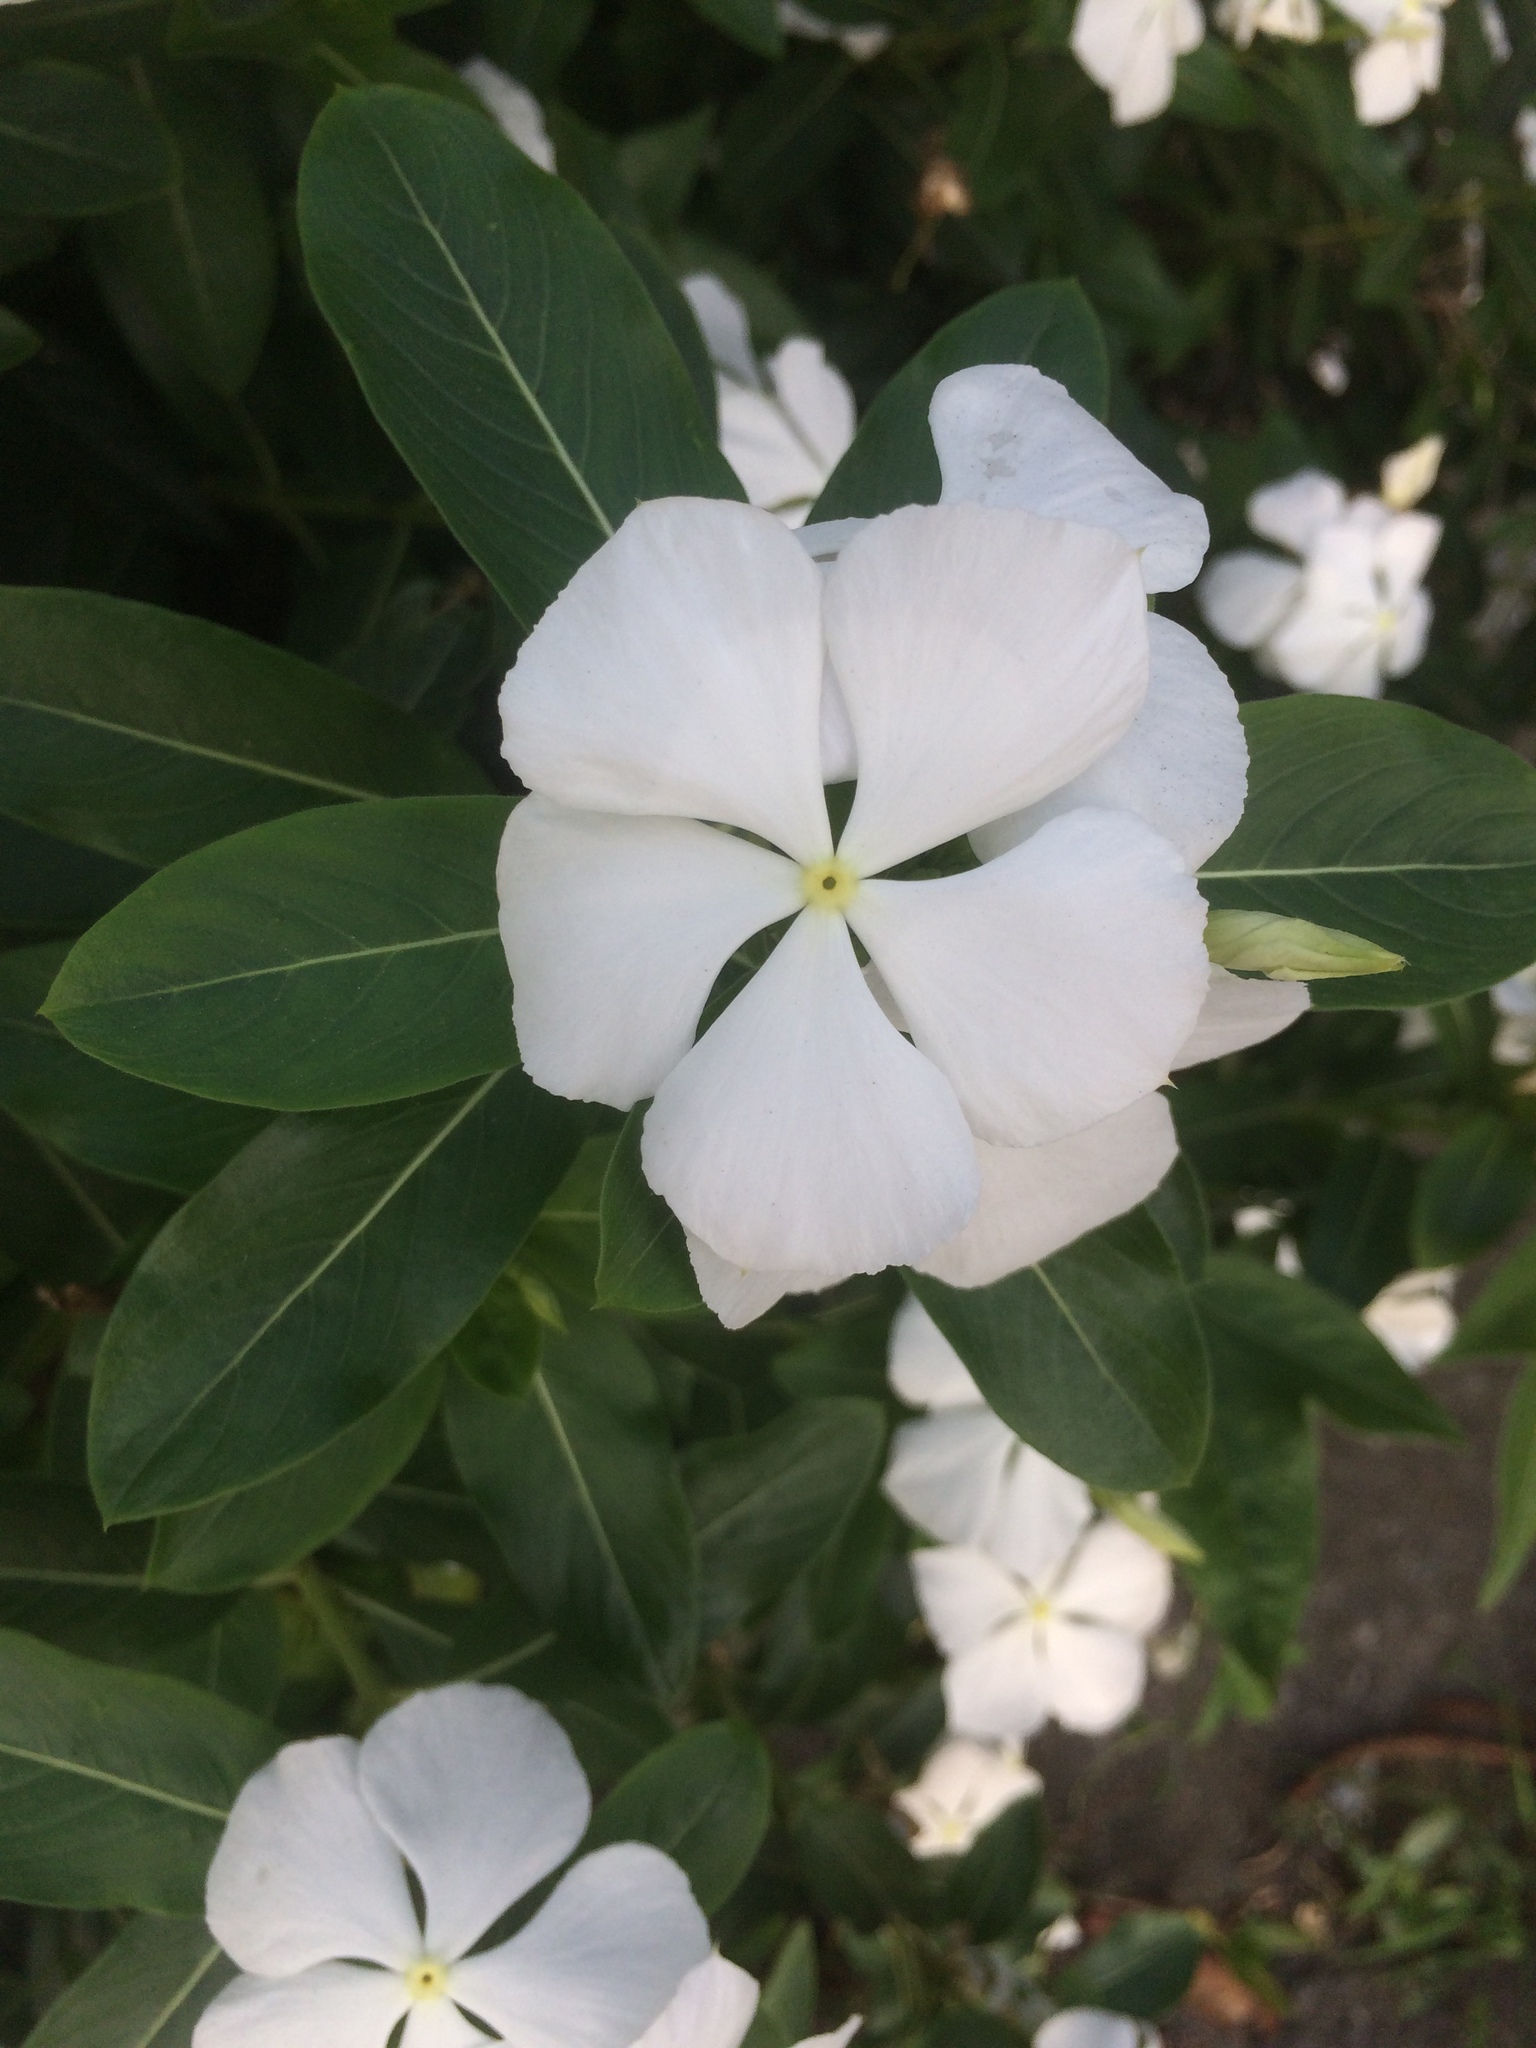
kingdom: Plantae
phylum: Tracheophyta
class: Magnoliopsida
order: Gentianales
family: Apocynaceae
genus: Catharanthus
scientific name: Catharanthus roseus
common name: Madagascar periwinkle
